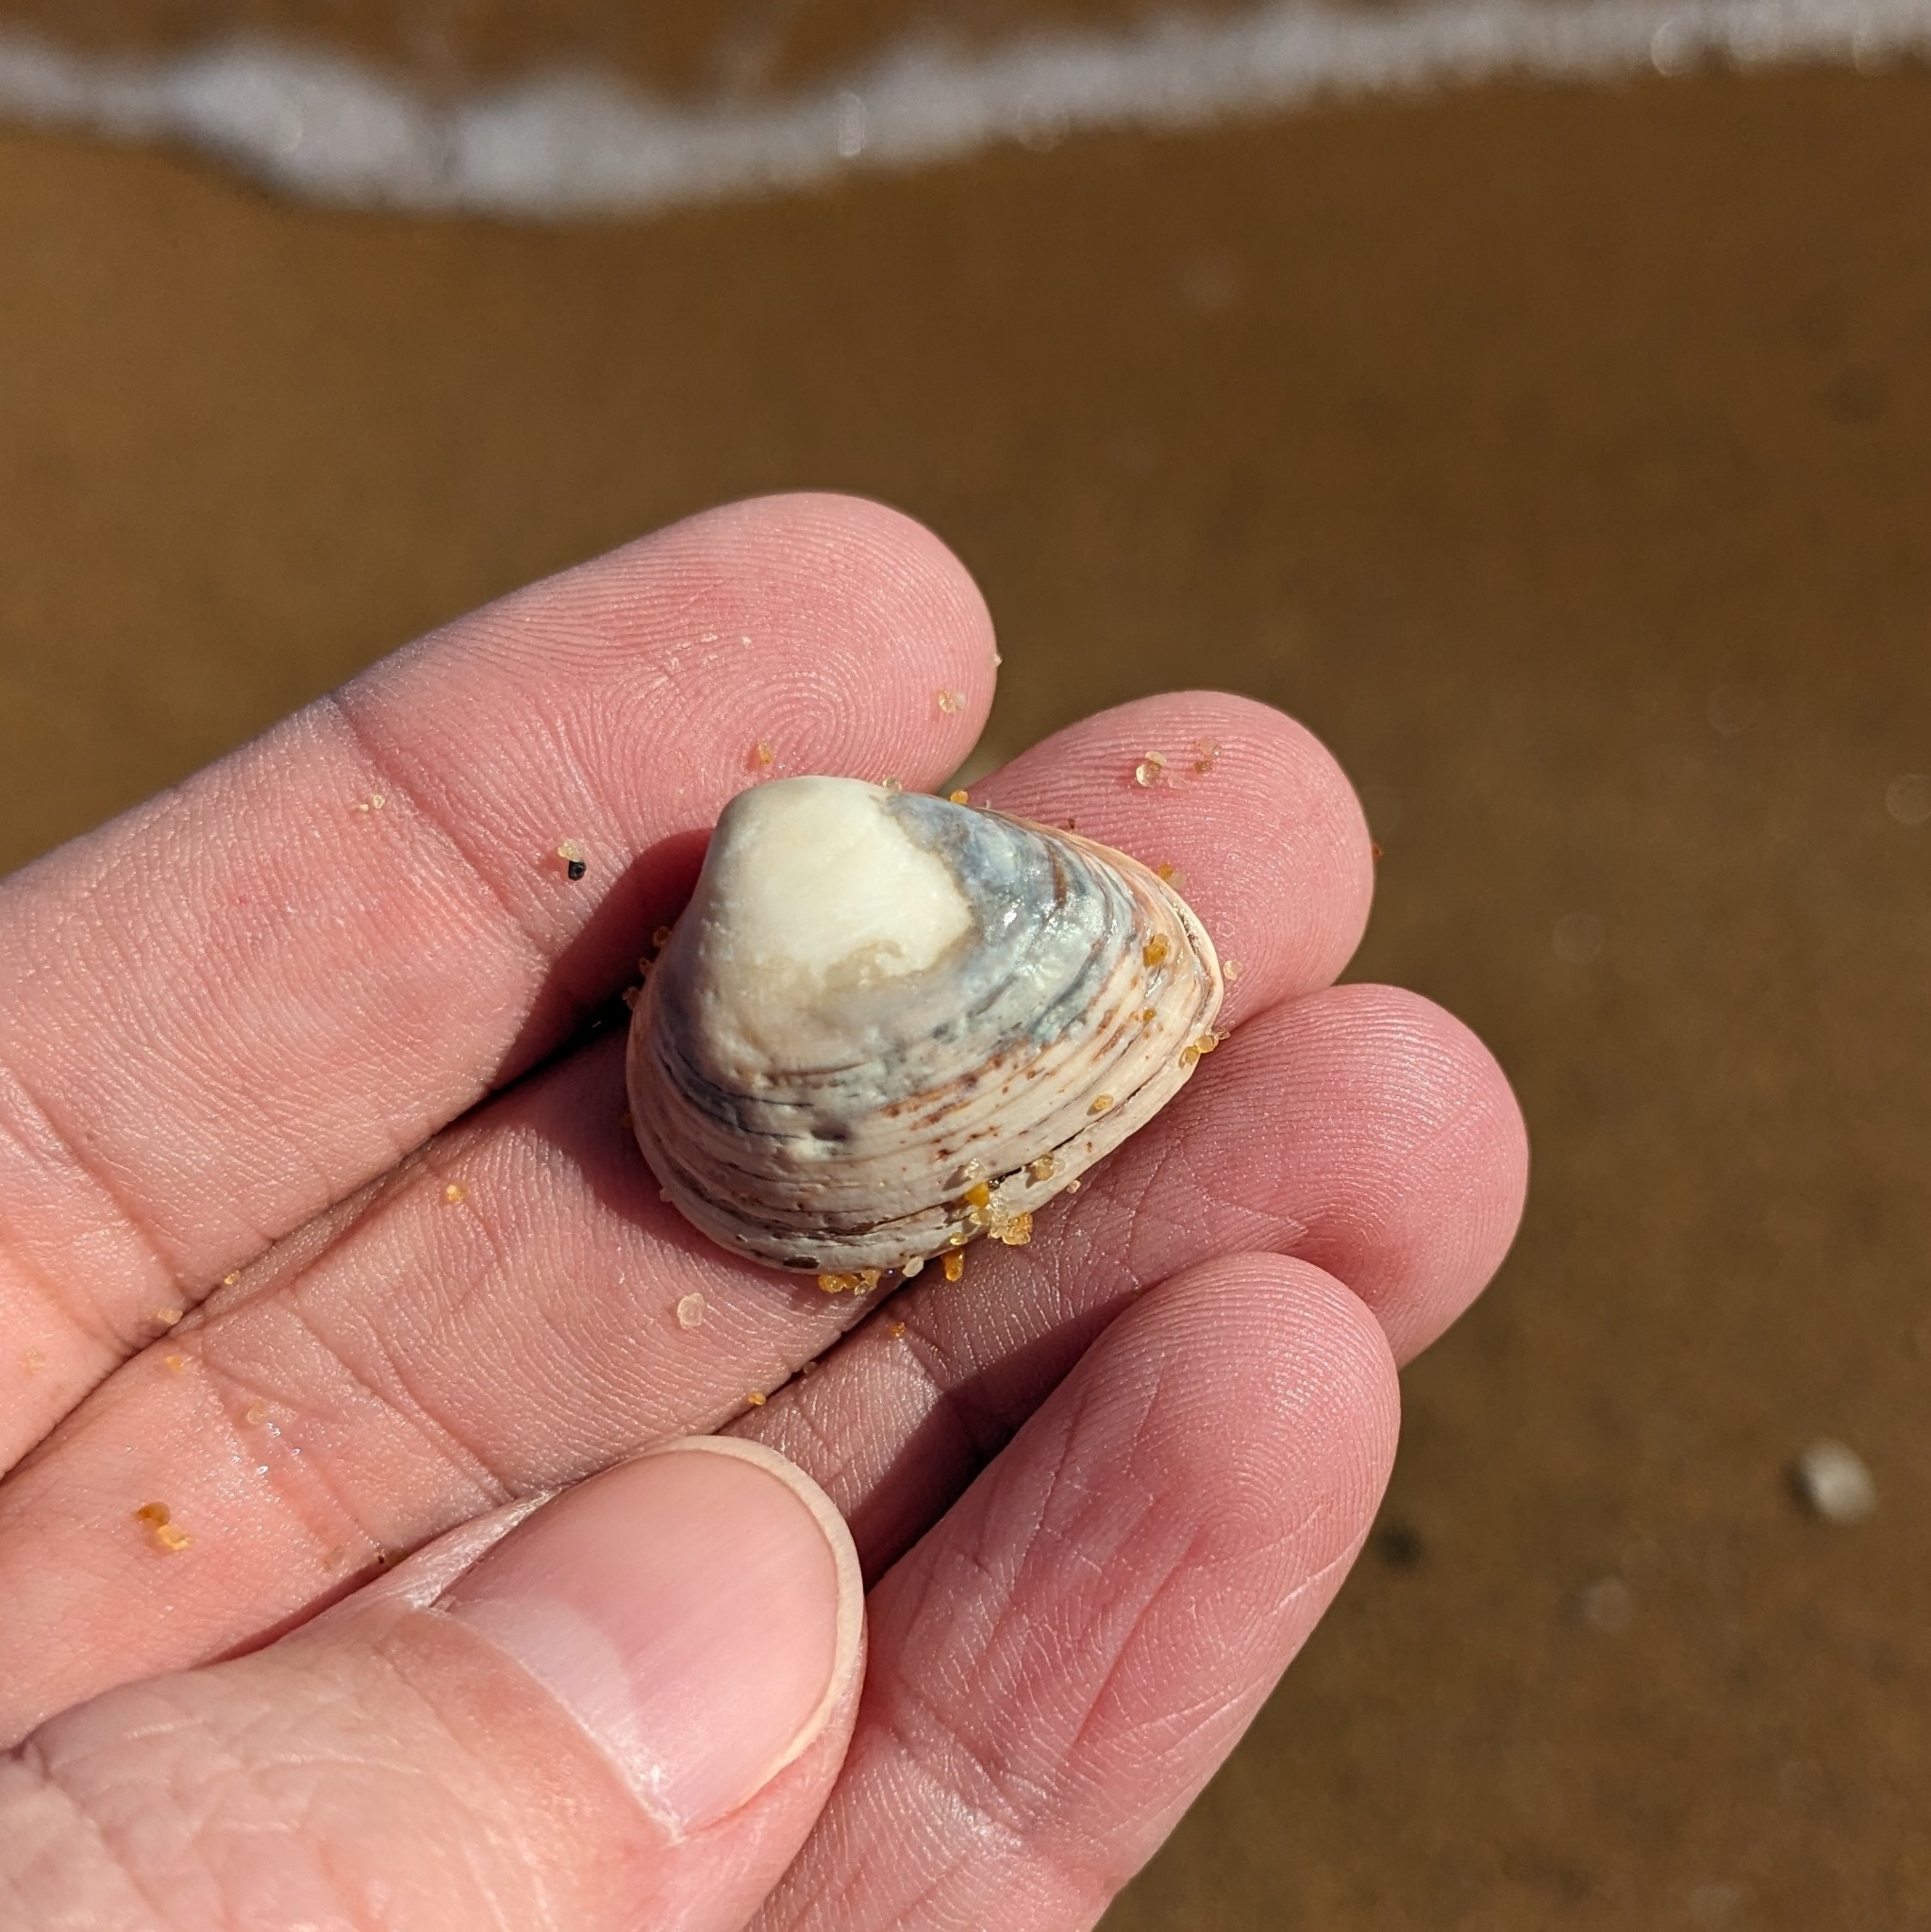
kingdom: Animalia
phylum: Mollusca
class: Bivalvia
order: Venerida
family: Mactridae
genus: Rangia
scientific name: Rangia cuneata
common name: Atlantic rangia
